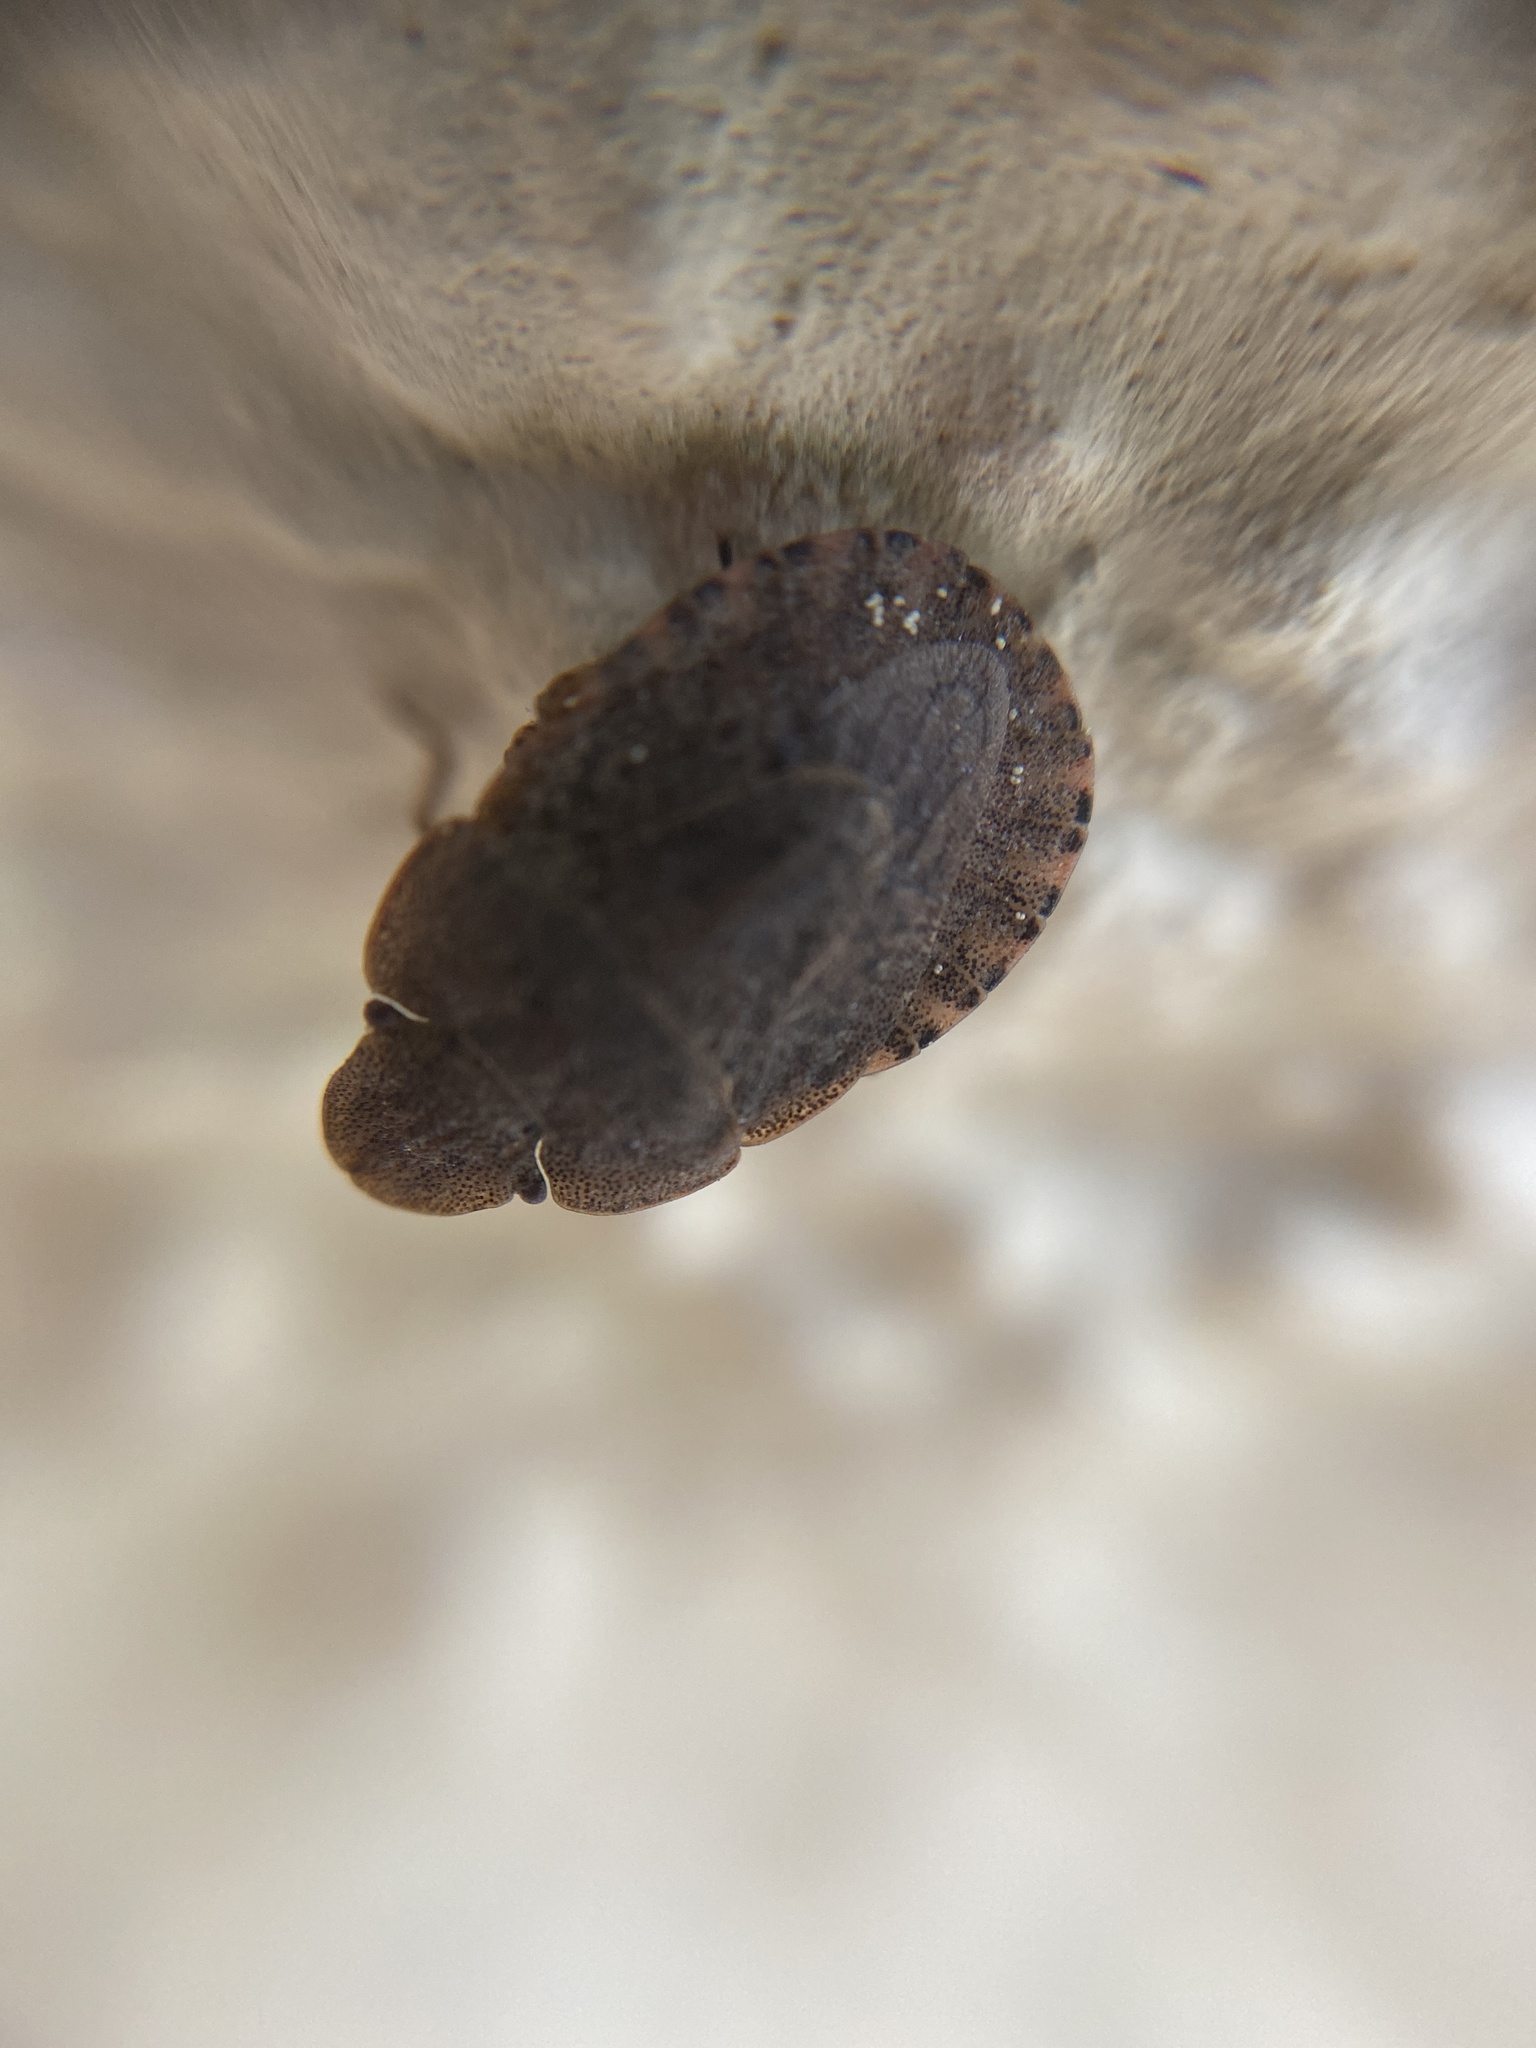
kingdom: Animalia
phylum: Arthropoda
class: Insecta
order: Hemiptera
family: Pentatomidae
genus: Sciocoris
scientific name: Sciocoris microphthalmus
